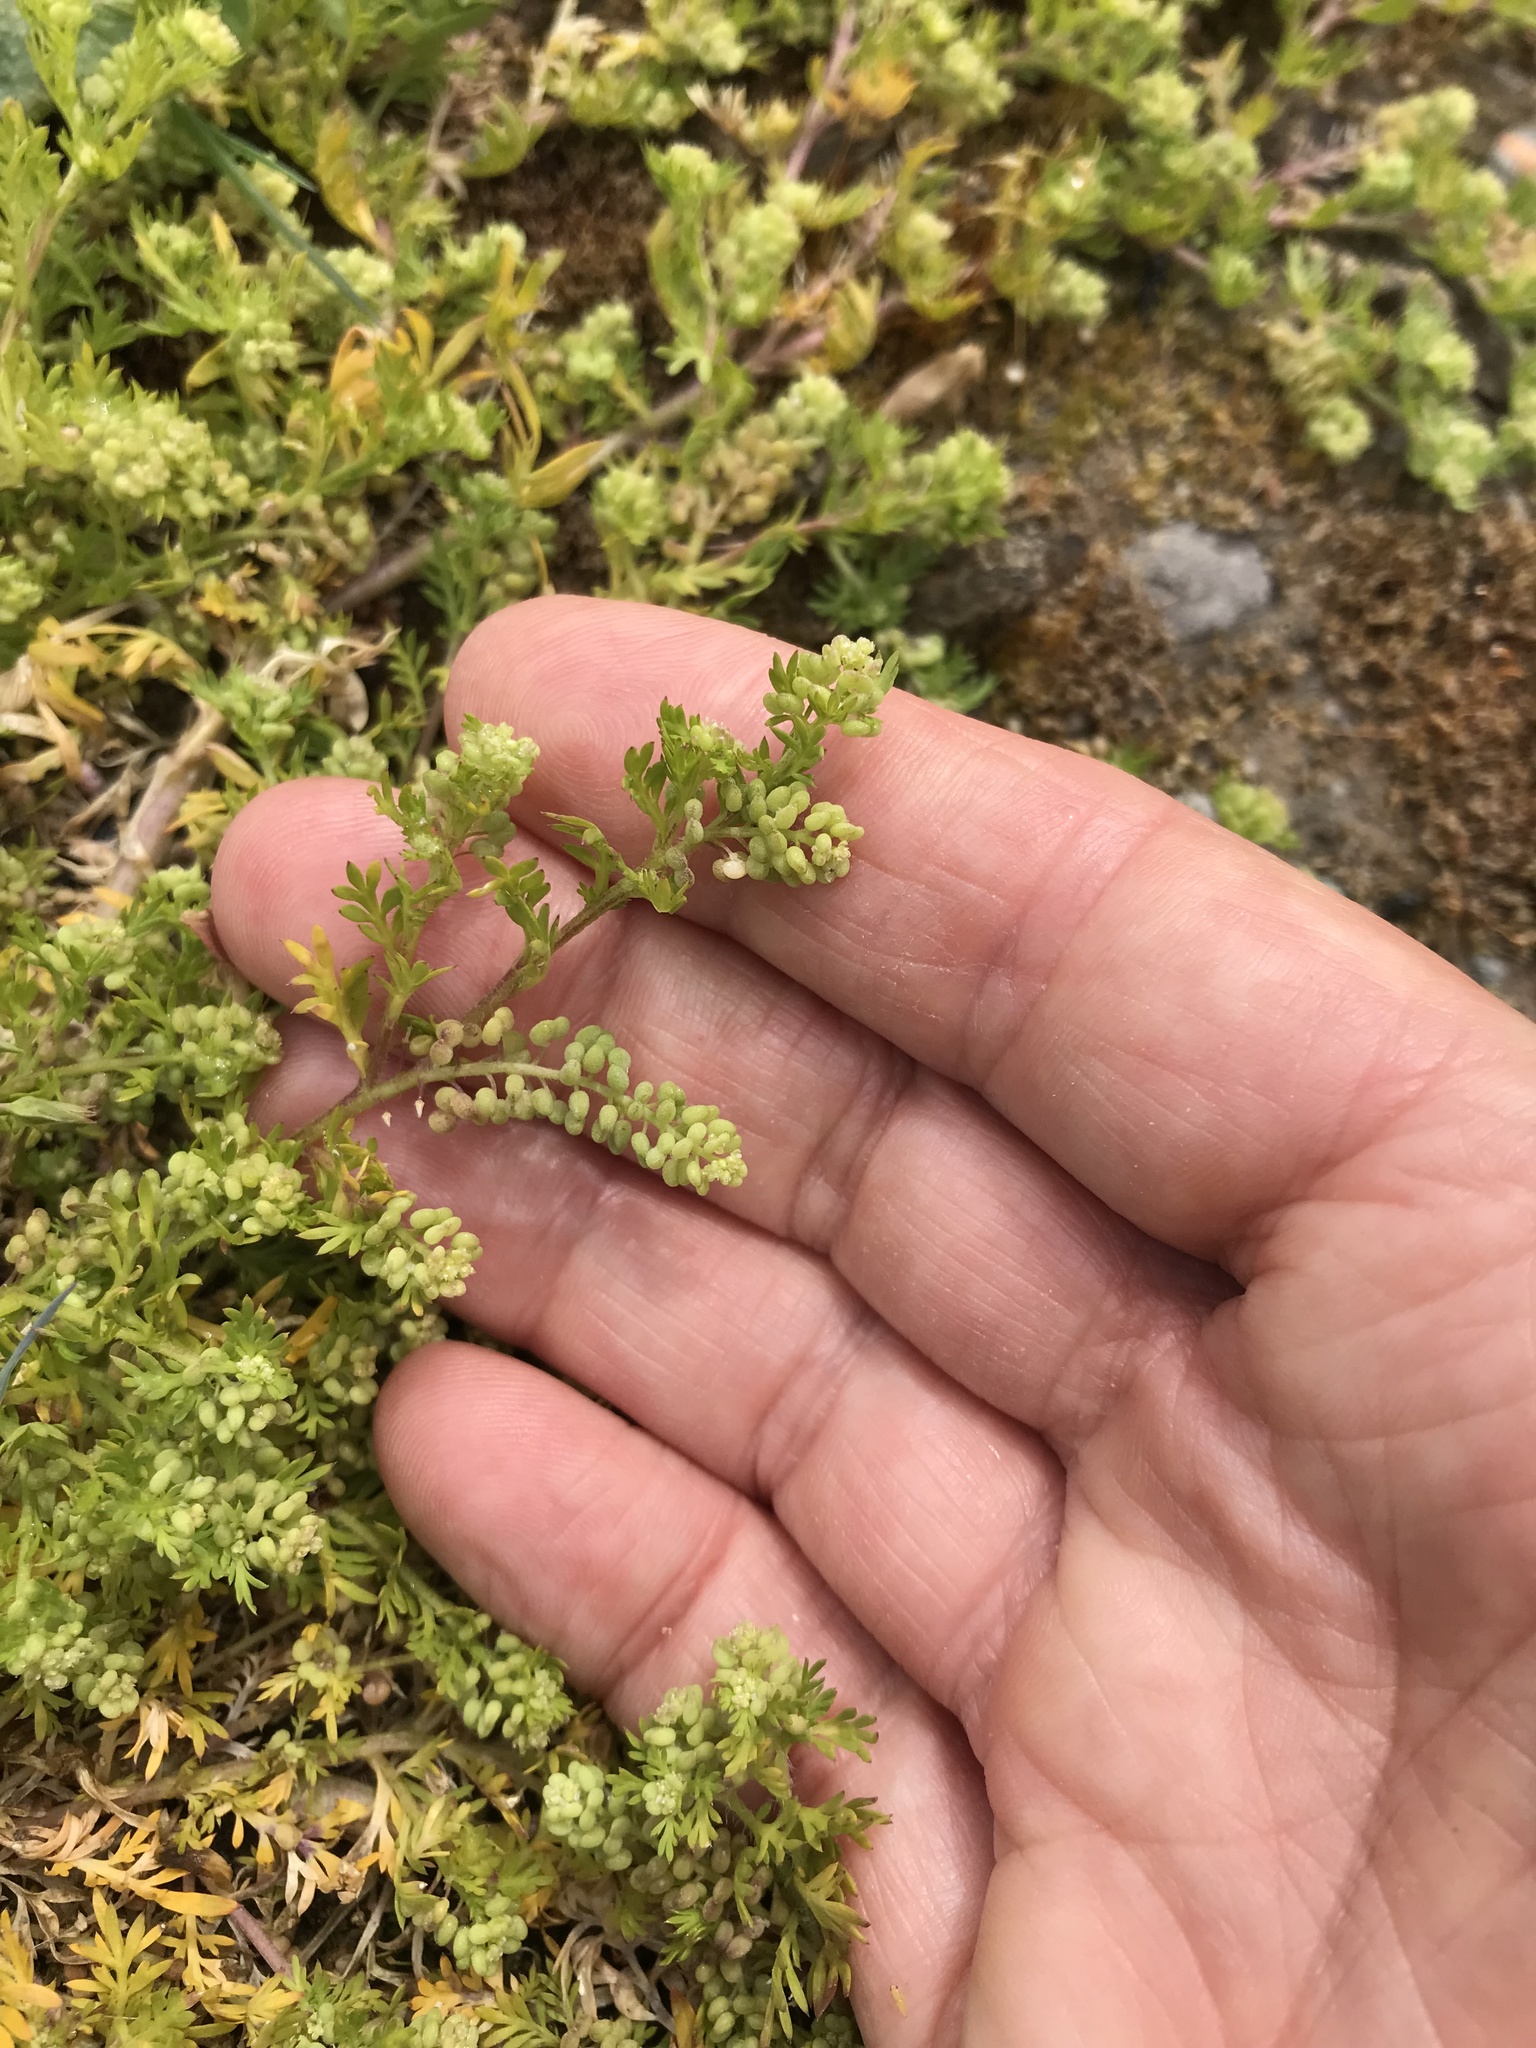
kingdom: Plantae
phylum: Tracheophyta
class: Magnoliopsida
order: Brassicales
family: Brassicaceae
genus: Lepidium
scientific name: Lepidium didymum
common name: Lesser swinecress
